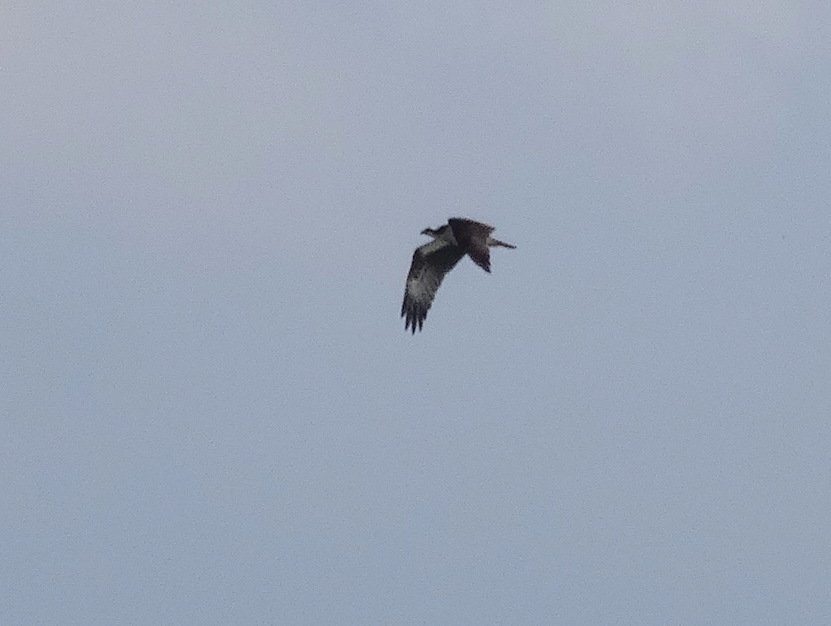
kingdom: Animalia
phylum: Chordata
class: Aves
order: Accipitriformes
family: Pandionidae
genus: Pandion
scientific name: Pandion haliaetus
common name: Osprey
